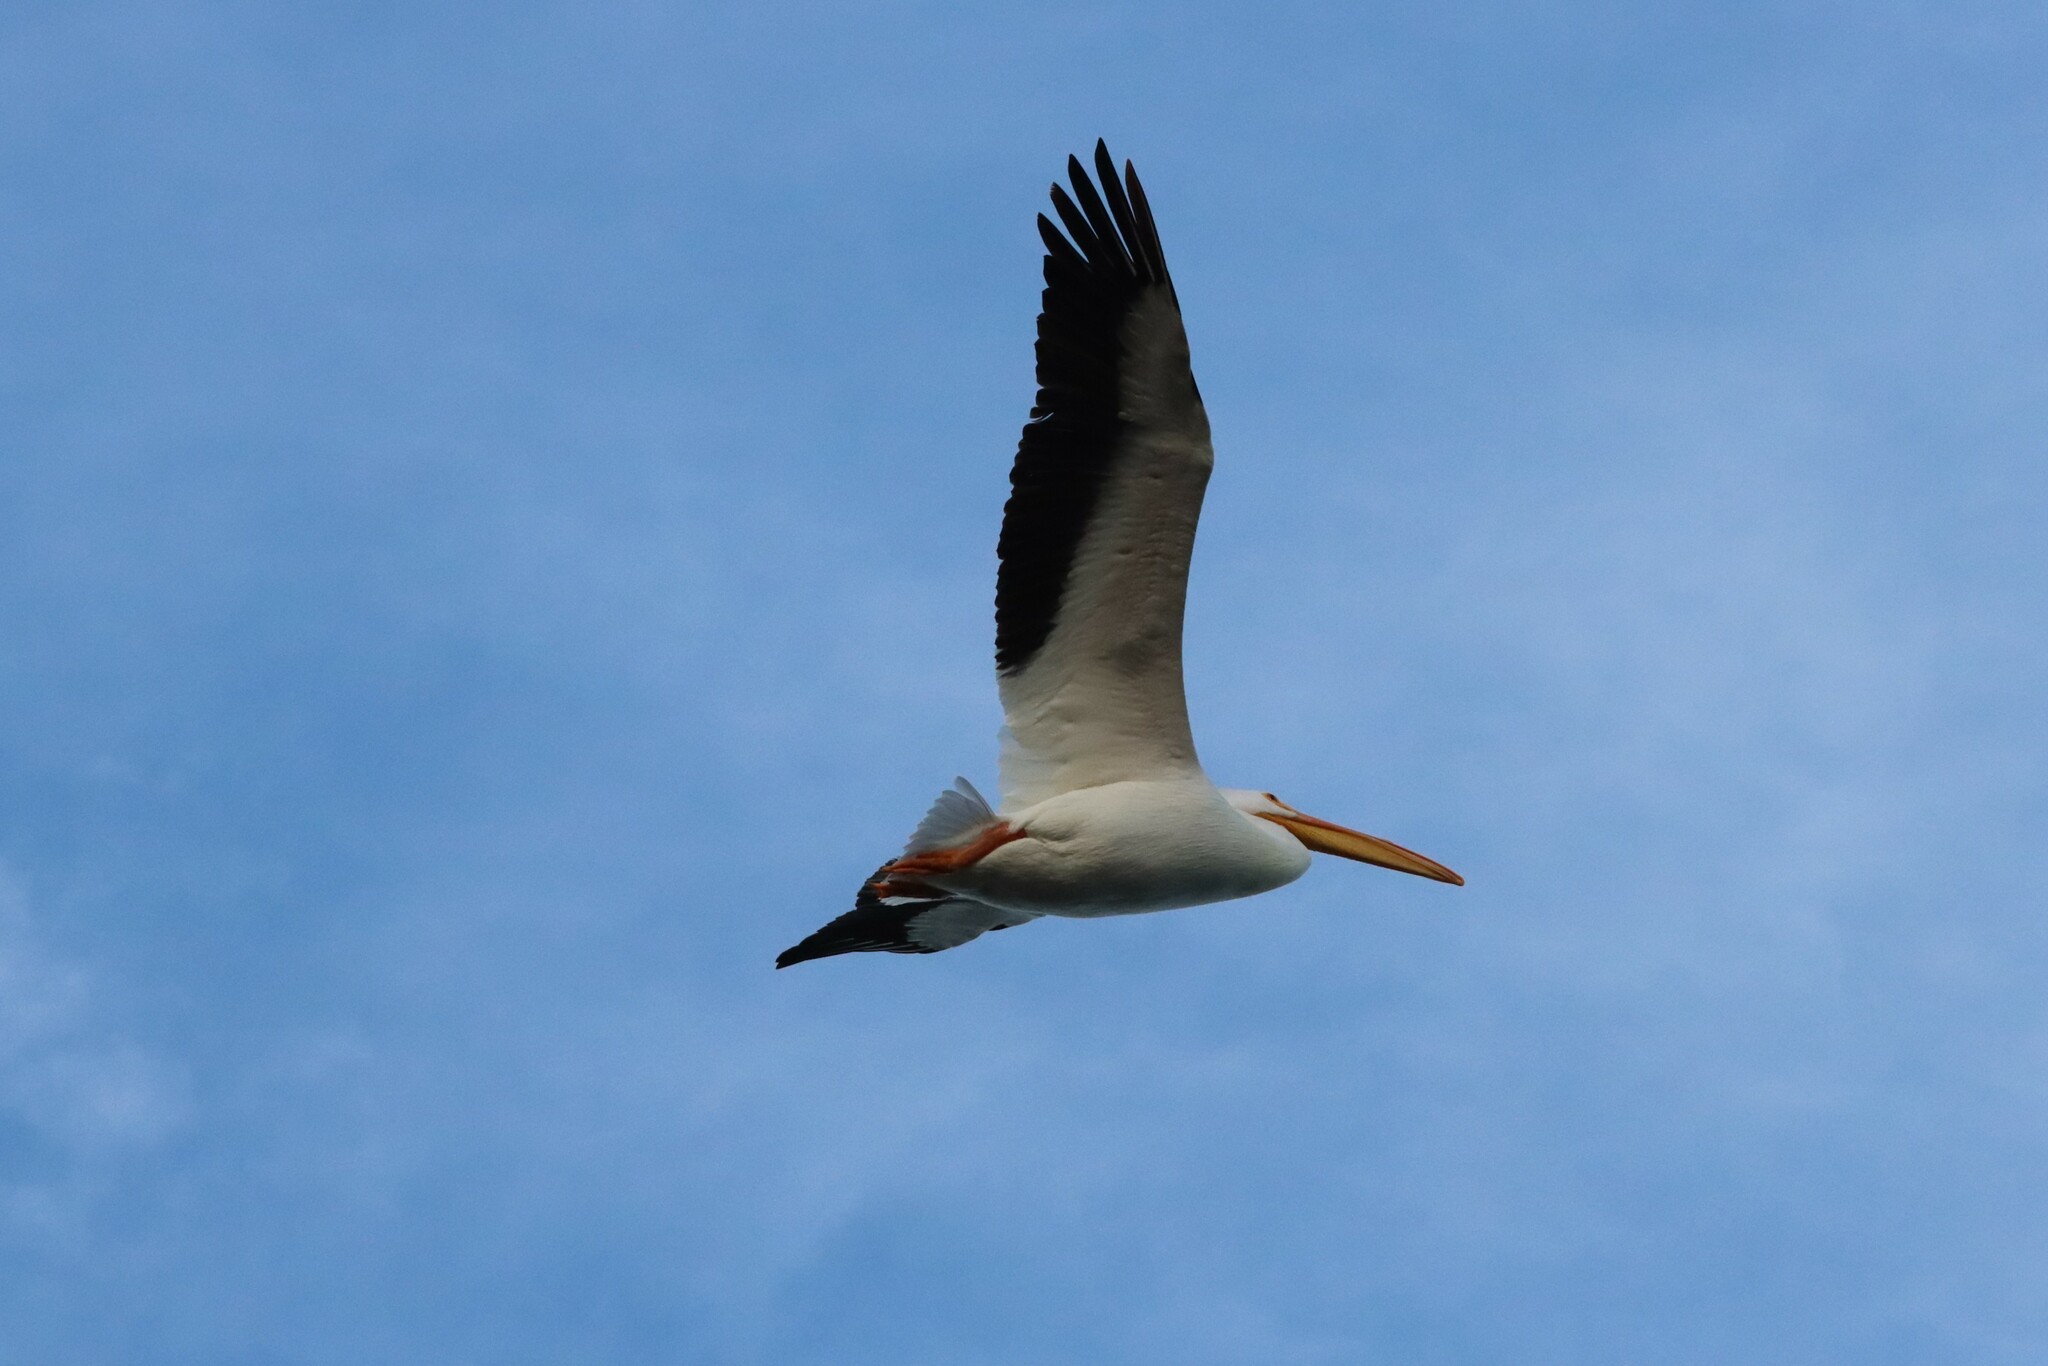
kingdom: Animalia
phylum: Chordata
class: Aves
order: Pelecaniformes
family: Pelecanidae
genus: Pelecanus
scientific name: Pelecanus erythrorhynchos
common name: American white pelican
